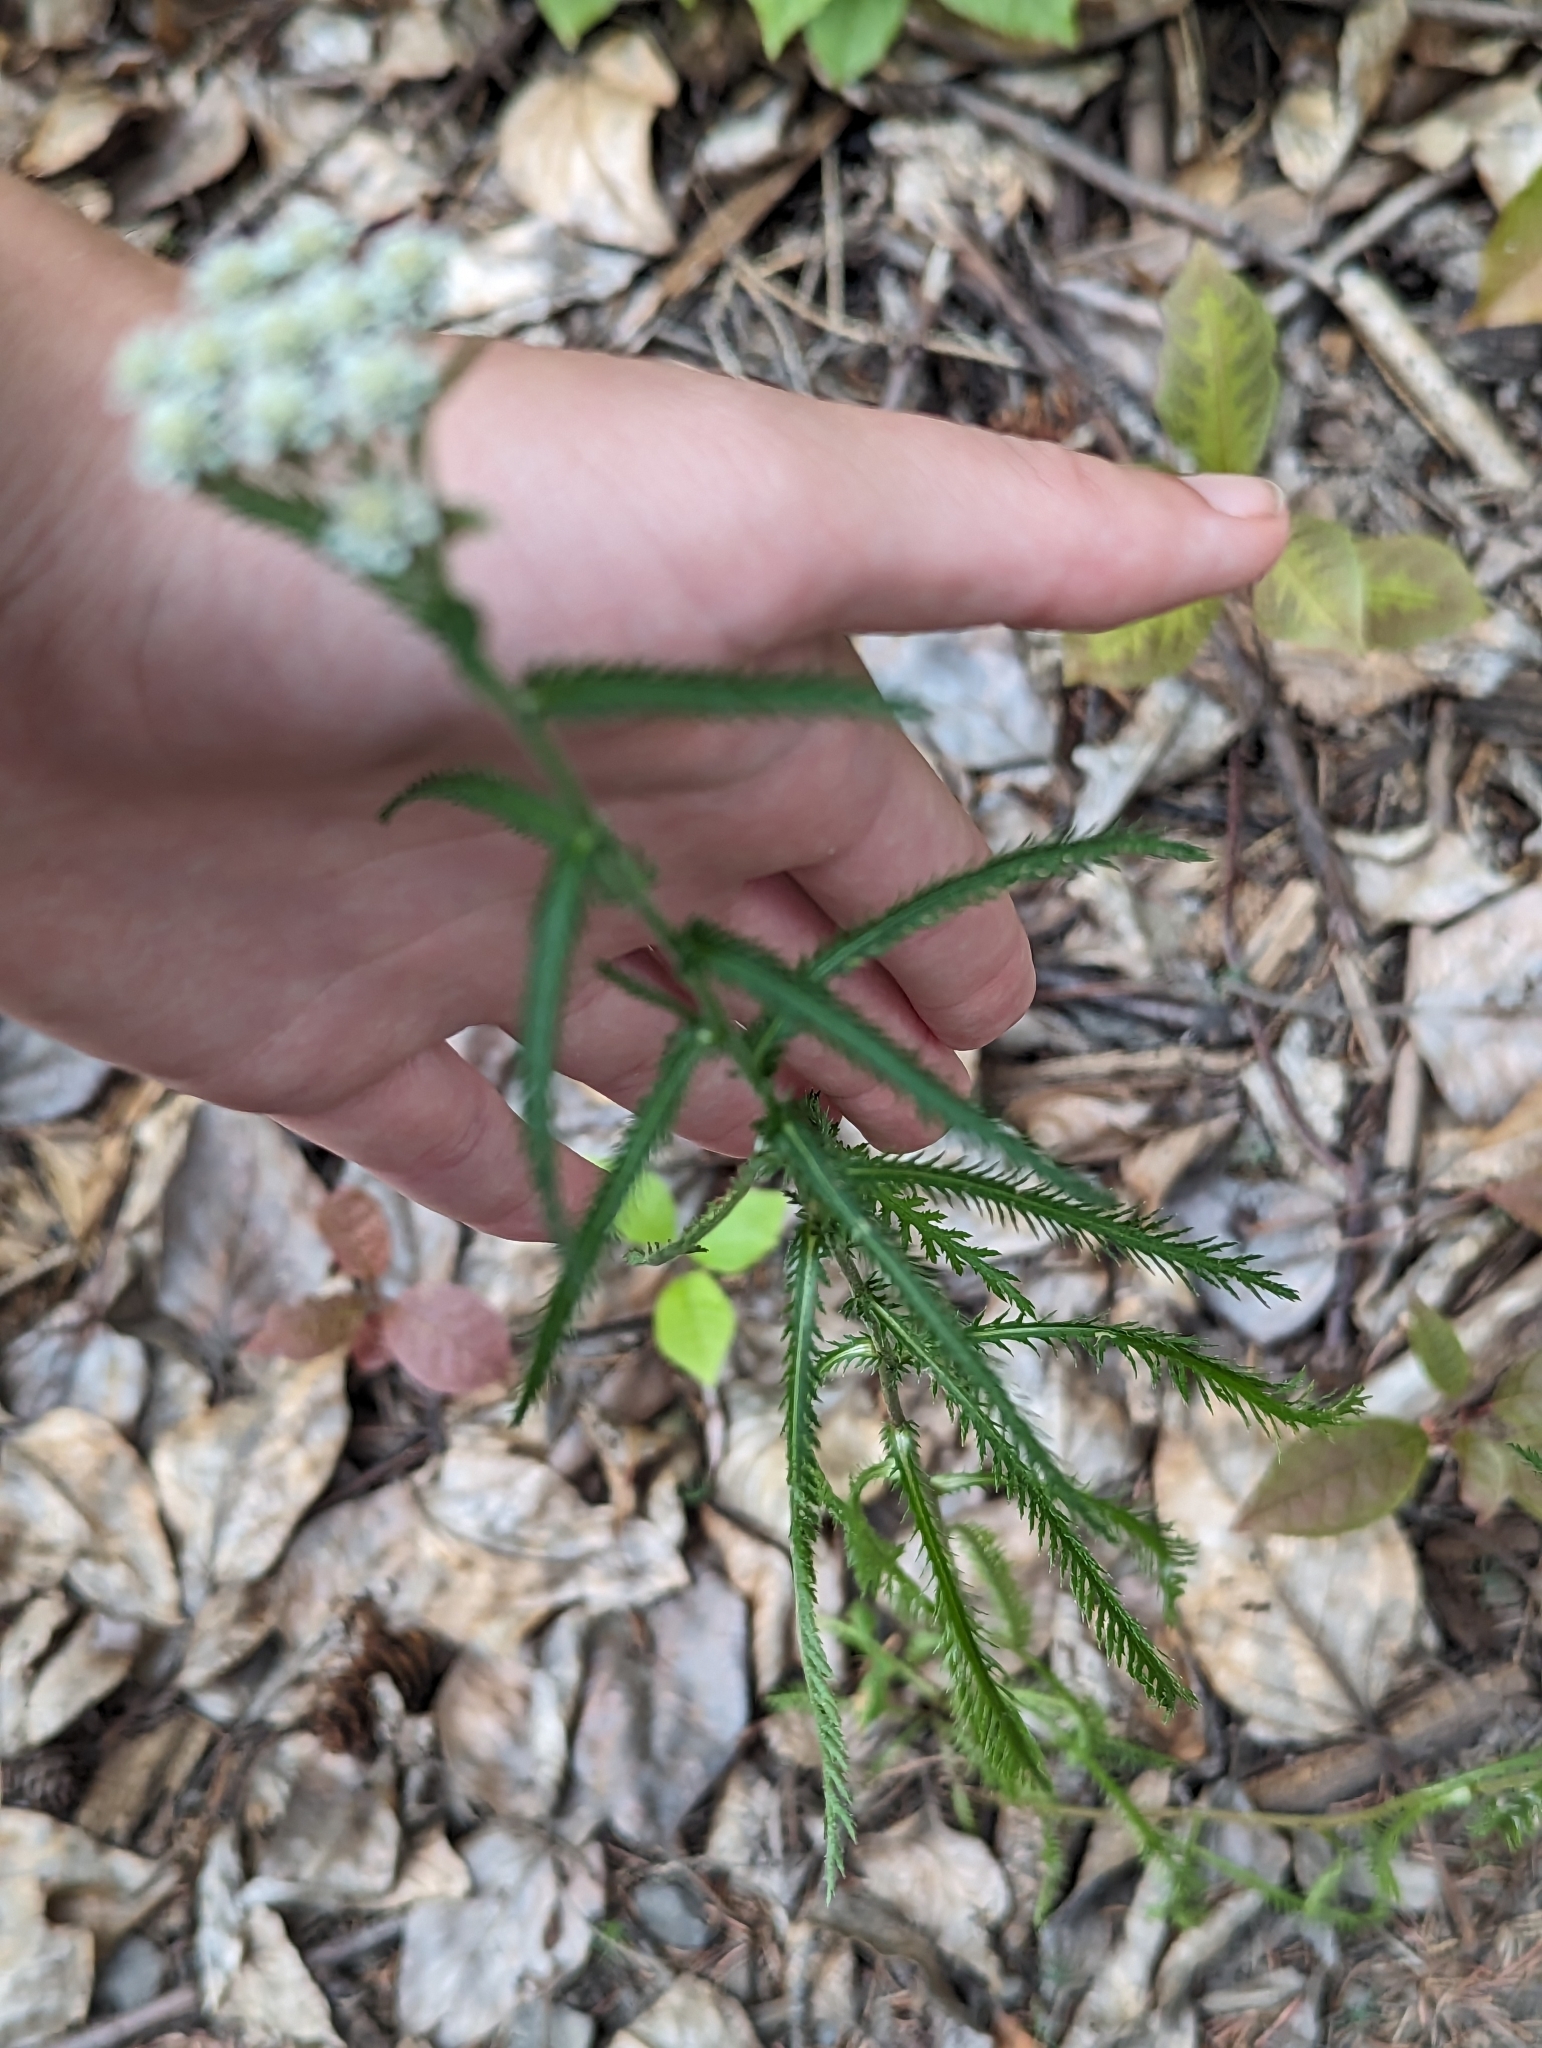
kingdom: Plantae
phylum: Tracheophyta
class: Magnoliopsida
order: Asterales
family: Asteraceae
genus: Achillea
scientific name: Achillea alpina
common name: Siberian yarrow
